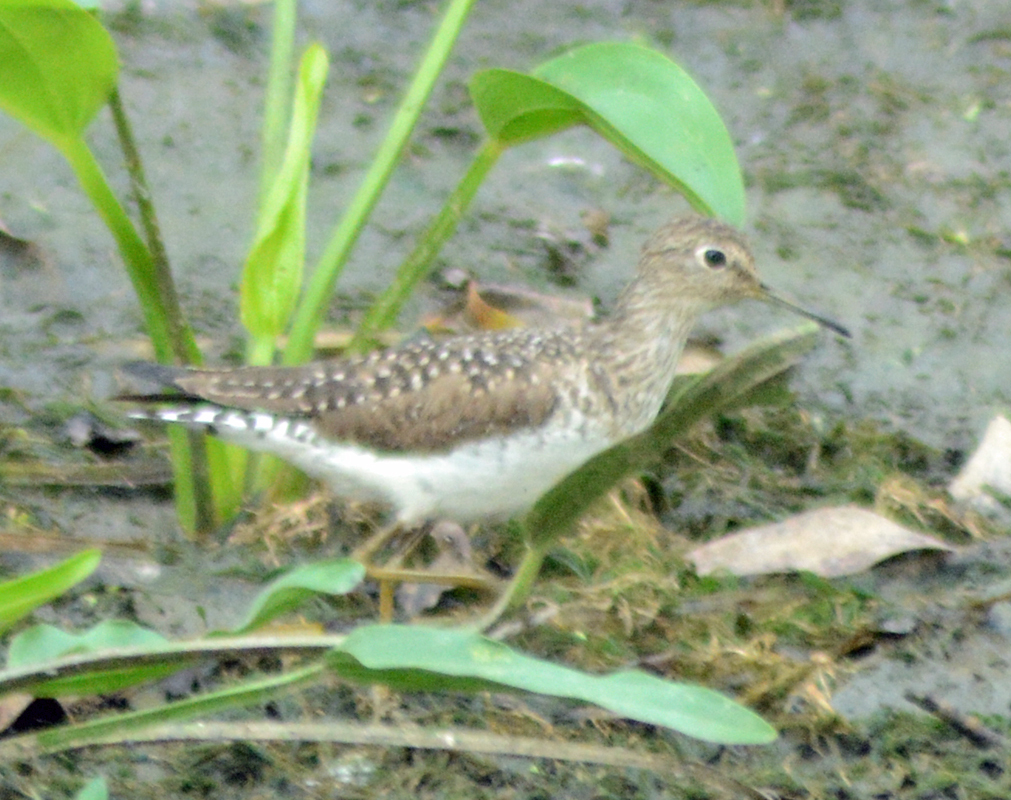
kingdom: Animalia
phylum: Chordata
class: Aves
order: Charadriiformes
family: Scolopacidae
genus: Tringa
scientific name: Tringa solitaria
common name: Solitary sandpiper
